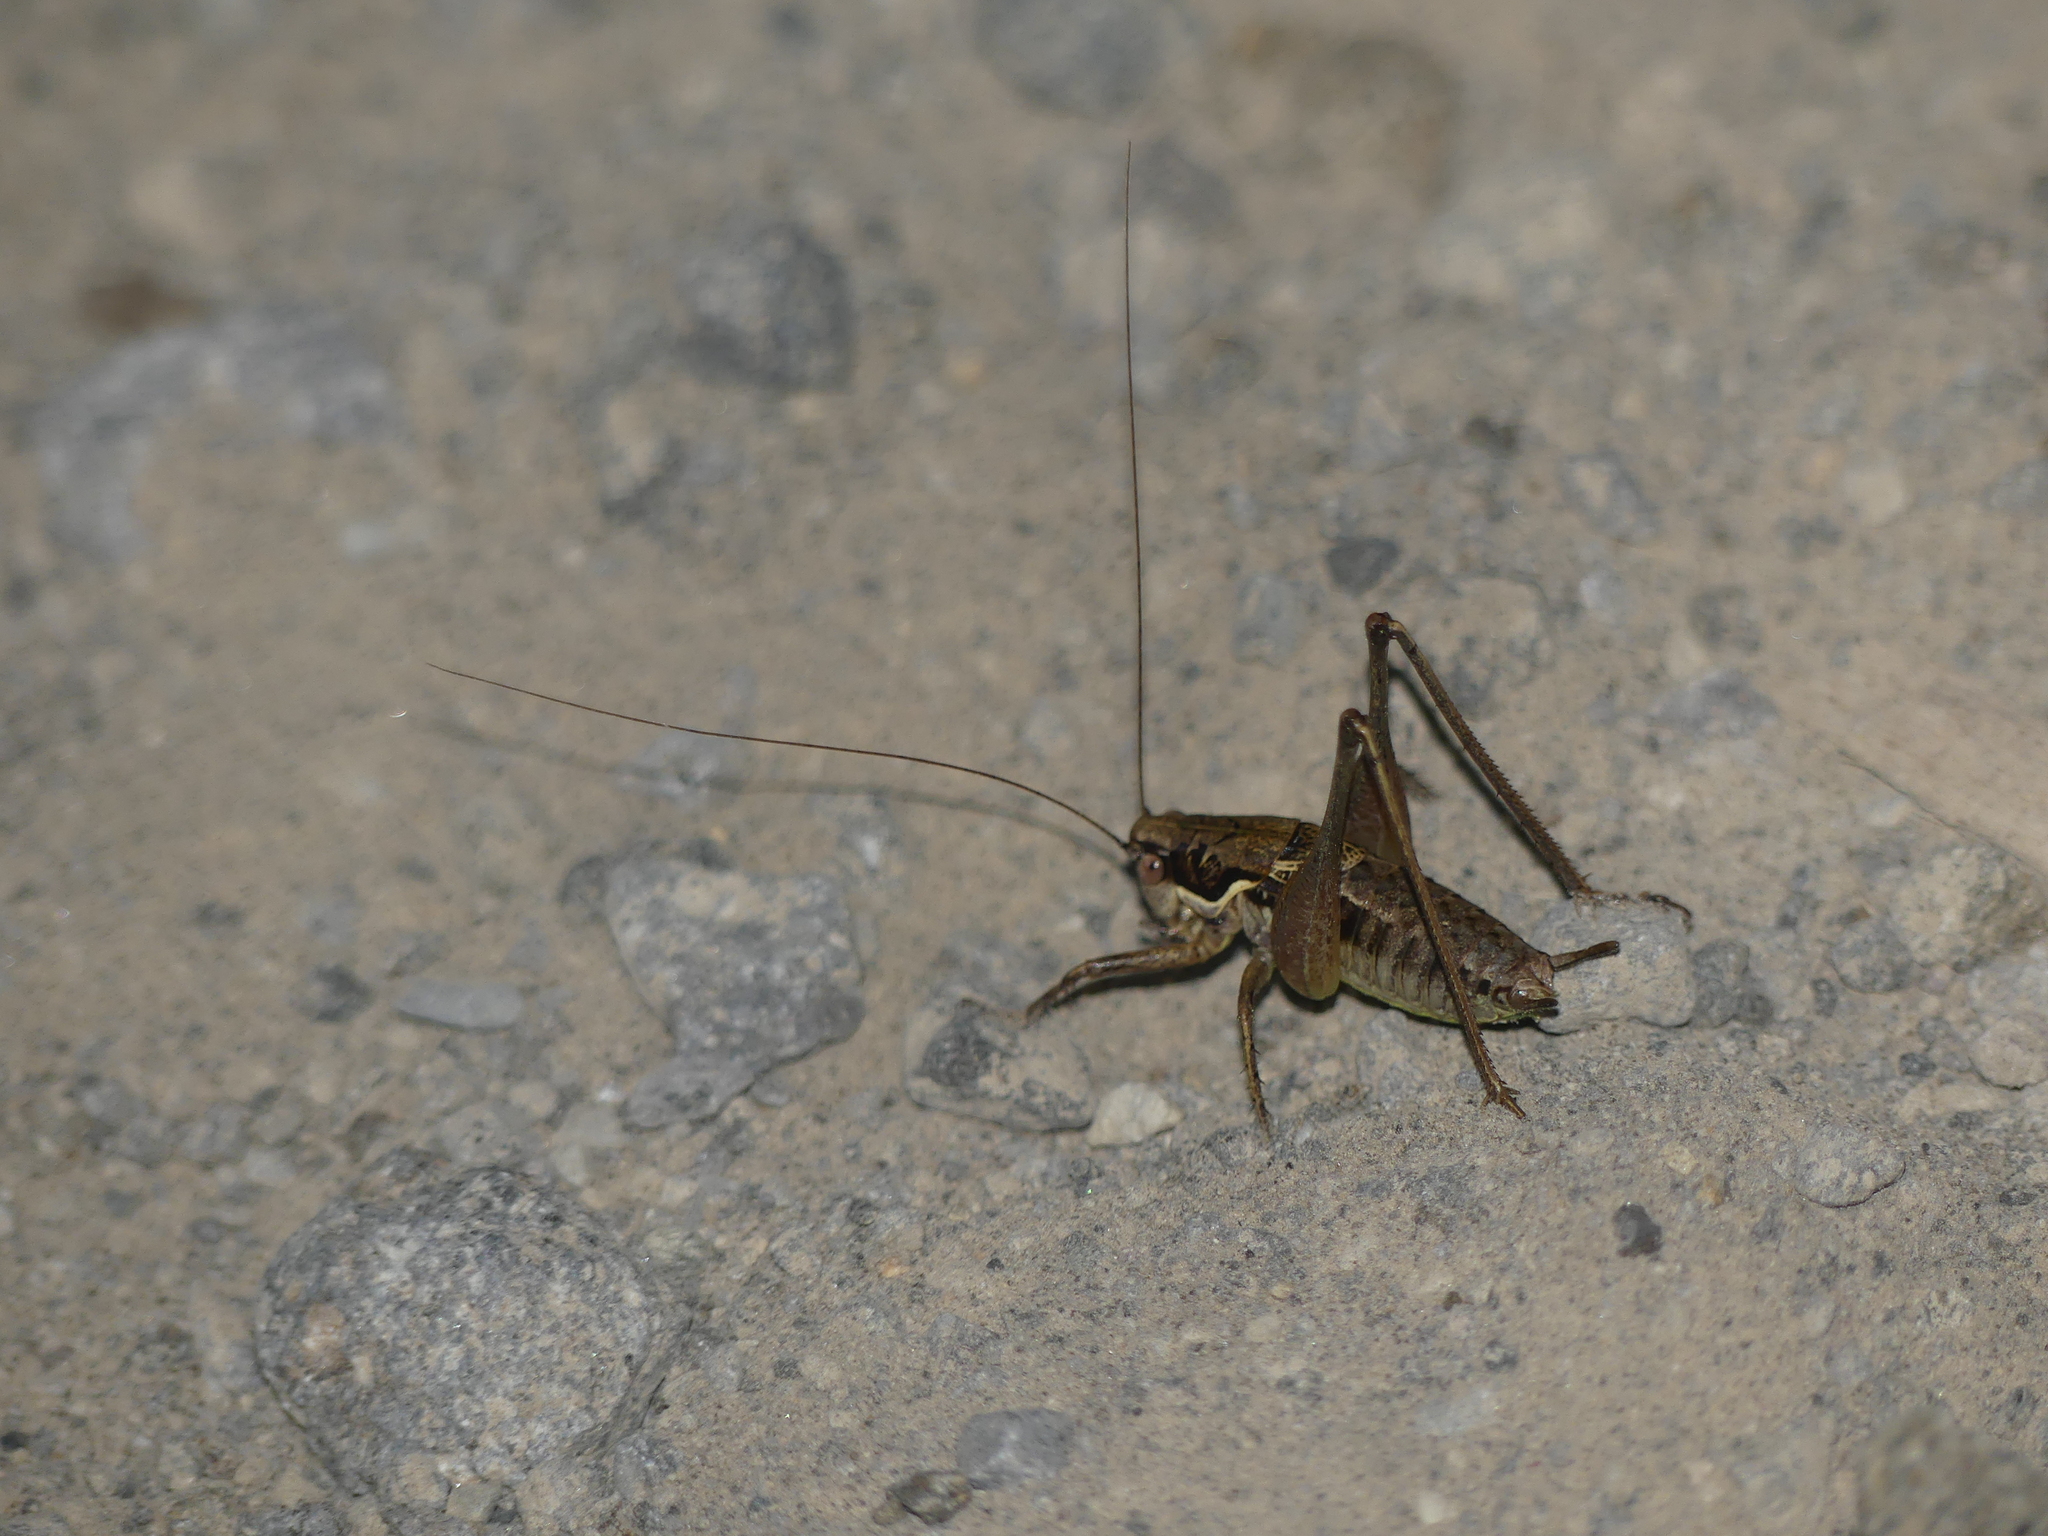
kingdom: Animalia
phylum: Arthropoda
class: Insecta
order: Orthoptera
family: Tettigoniidae
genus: Pachytrachis
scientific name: Pachytrachis gracilis
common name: Graceful bush-cricket
